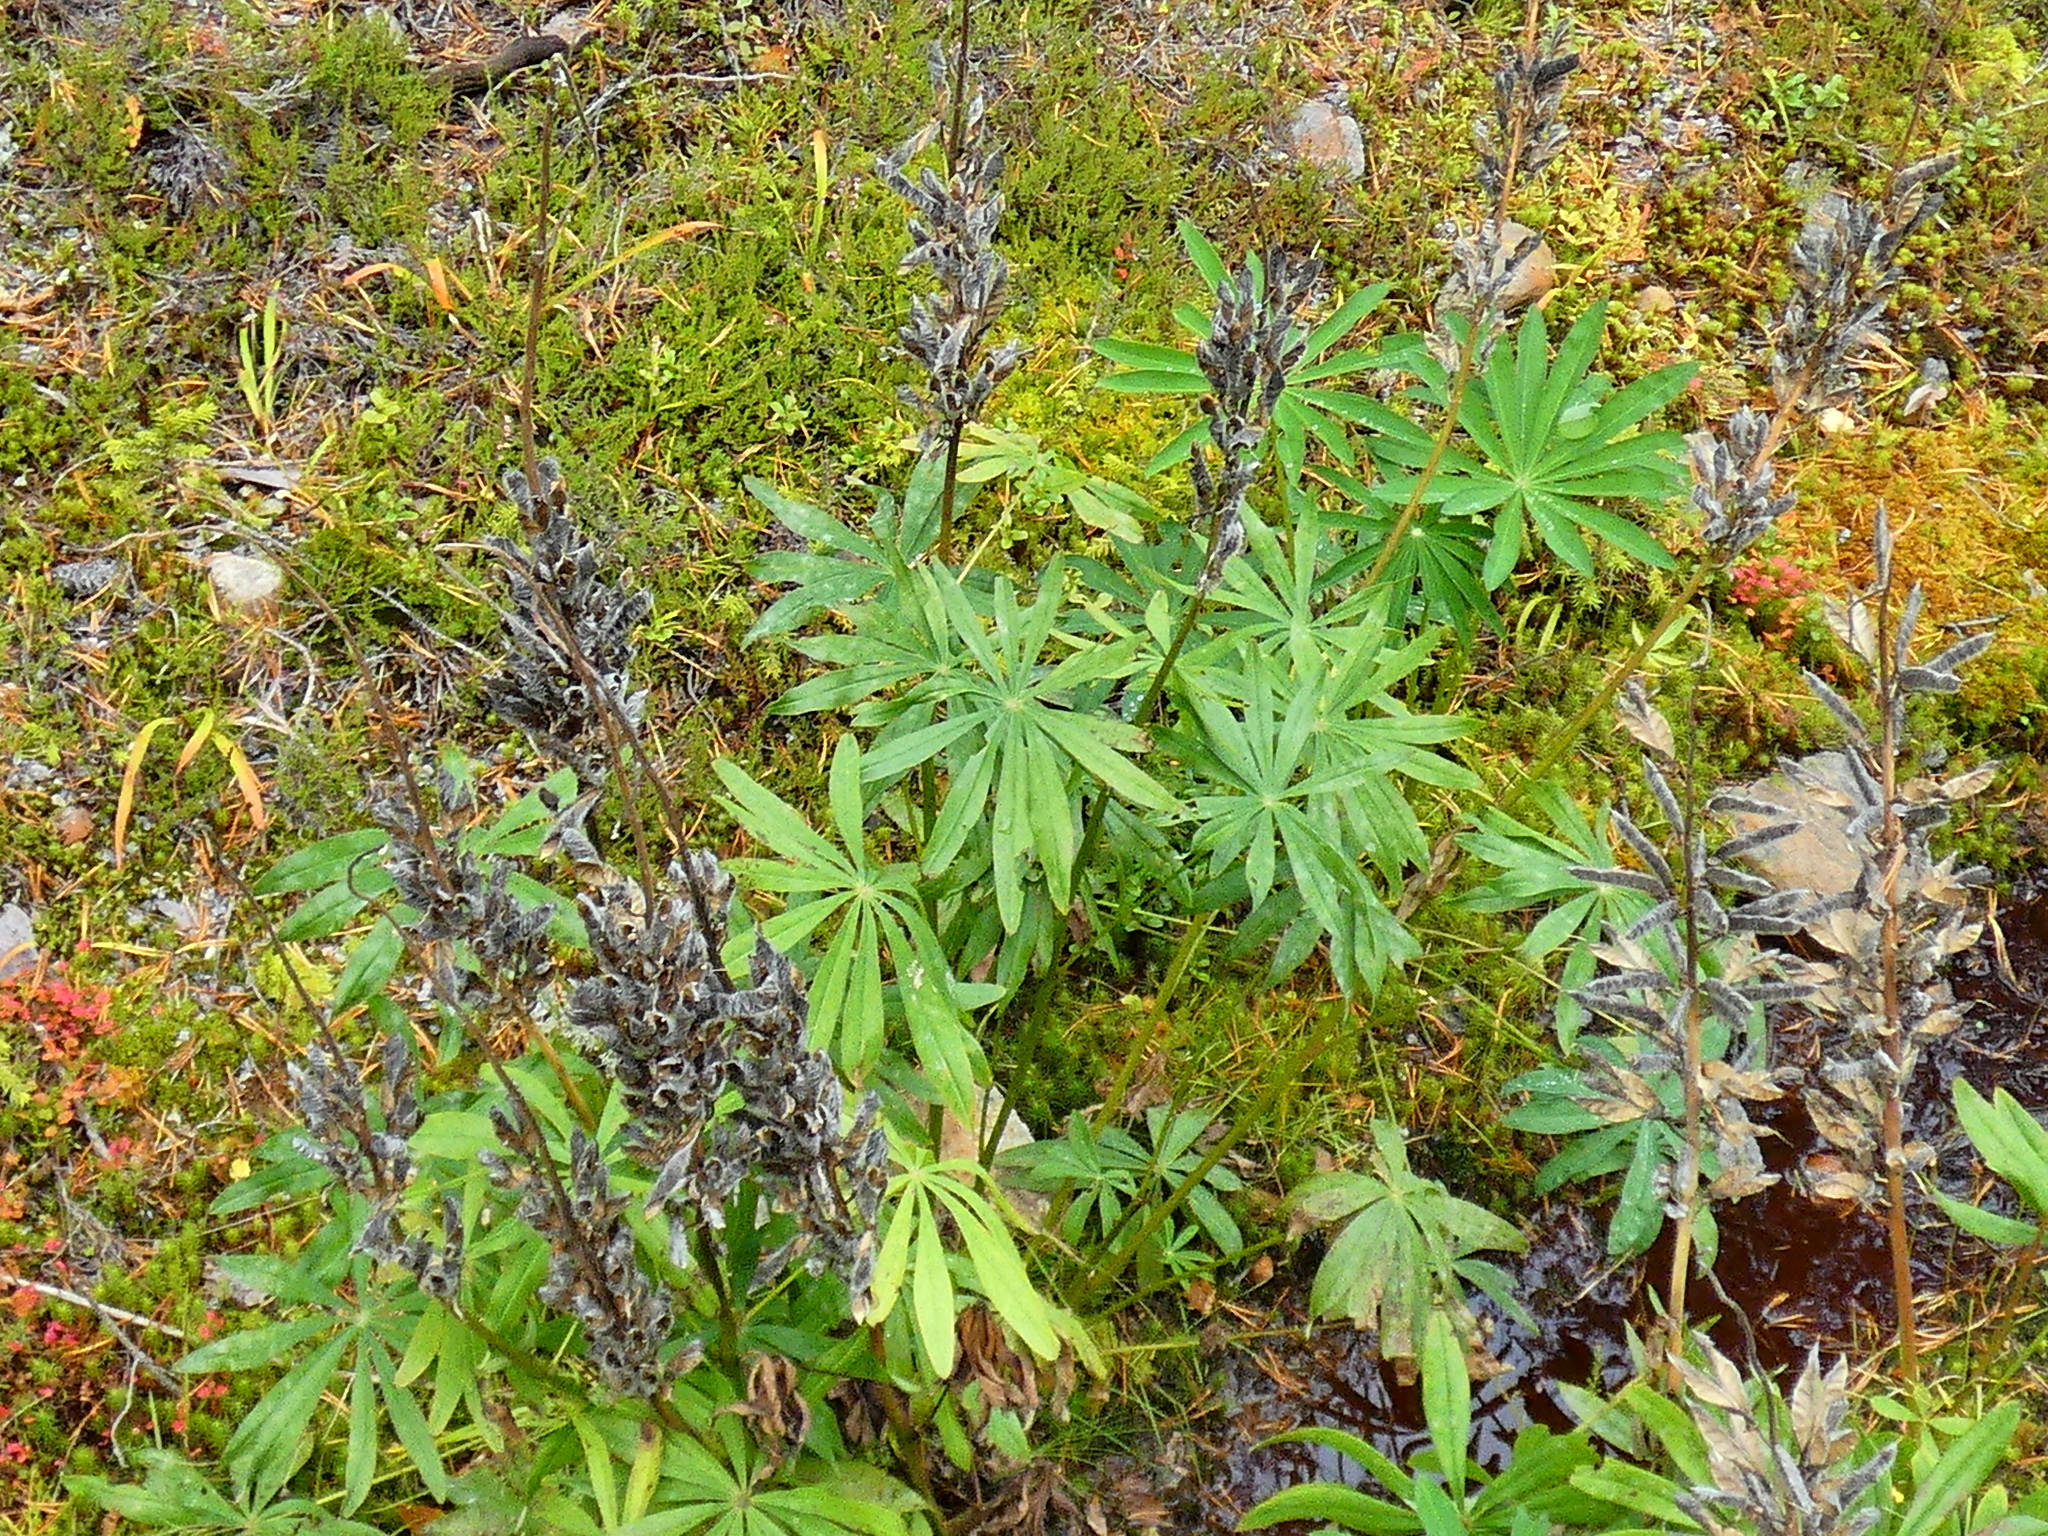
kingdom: Plantae
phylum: Tracheophyta
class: Magnoliopsida
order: Fabales
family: Fabaceae
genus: Lupinus
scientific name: Lupinus polyphyllus
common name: Garden lupin
